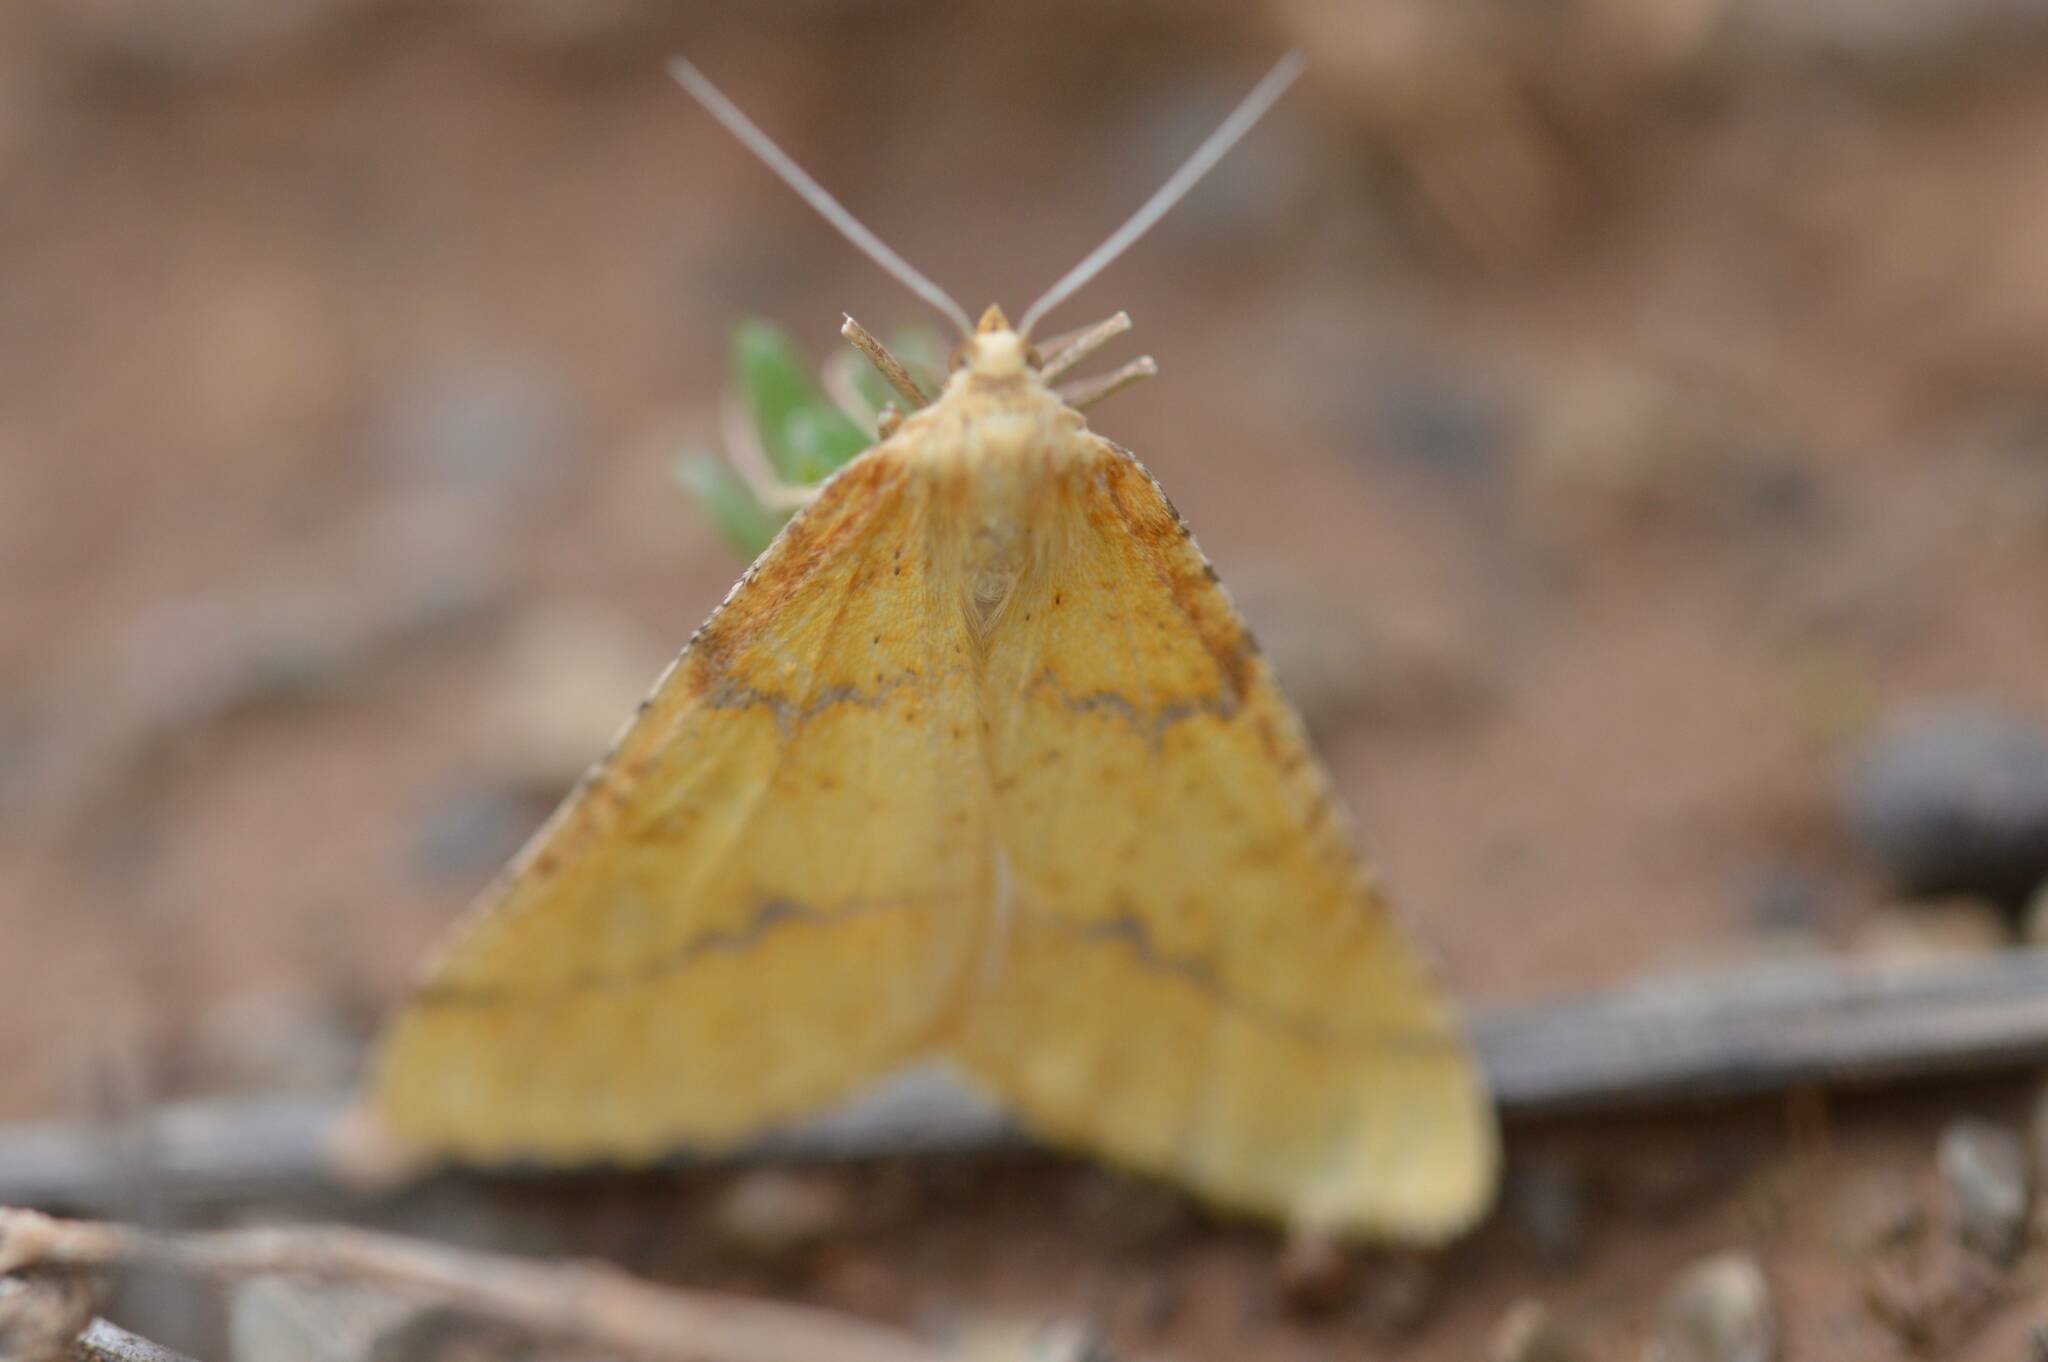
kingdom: Animalia
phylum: Arthropoda
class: Insecta
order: Lepidoptera
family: Geometridae
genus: Aspitates
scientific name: Aspitates ochrearia
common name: Yellow belle
